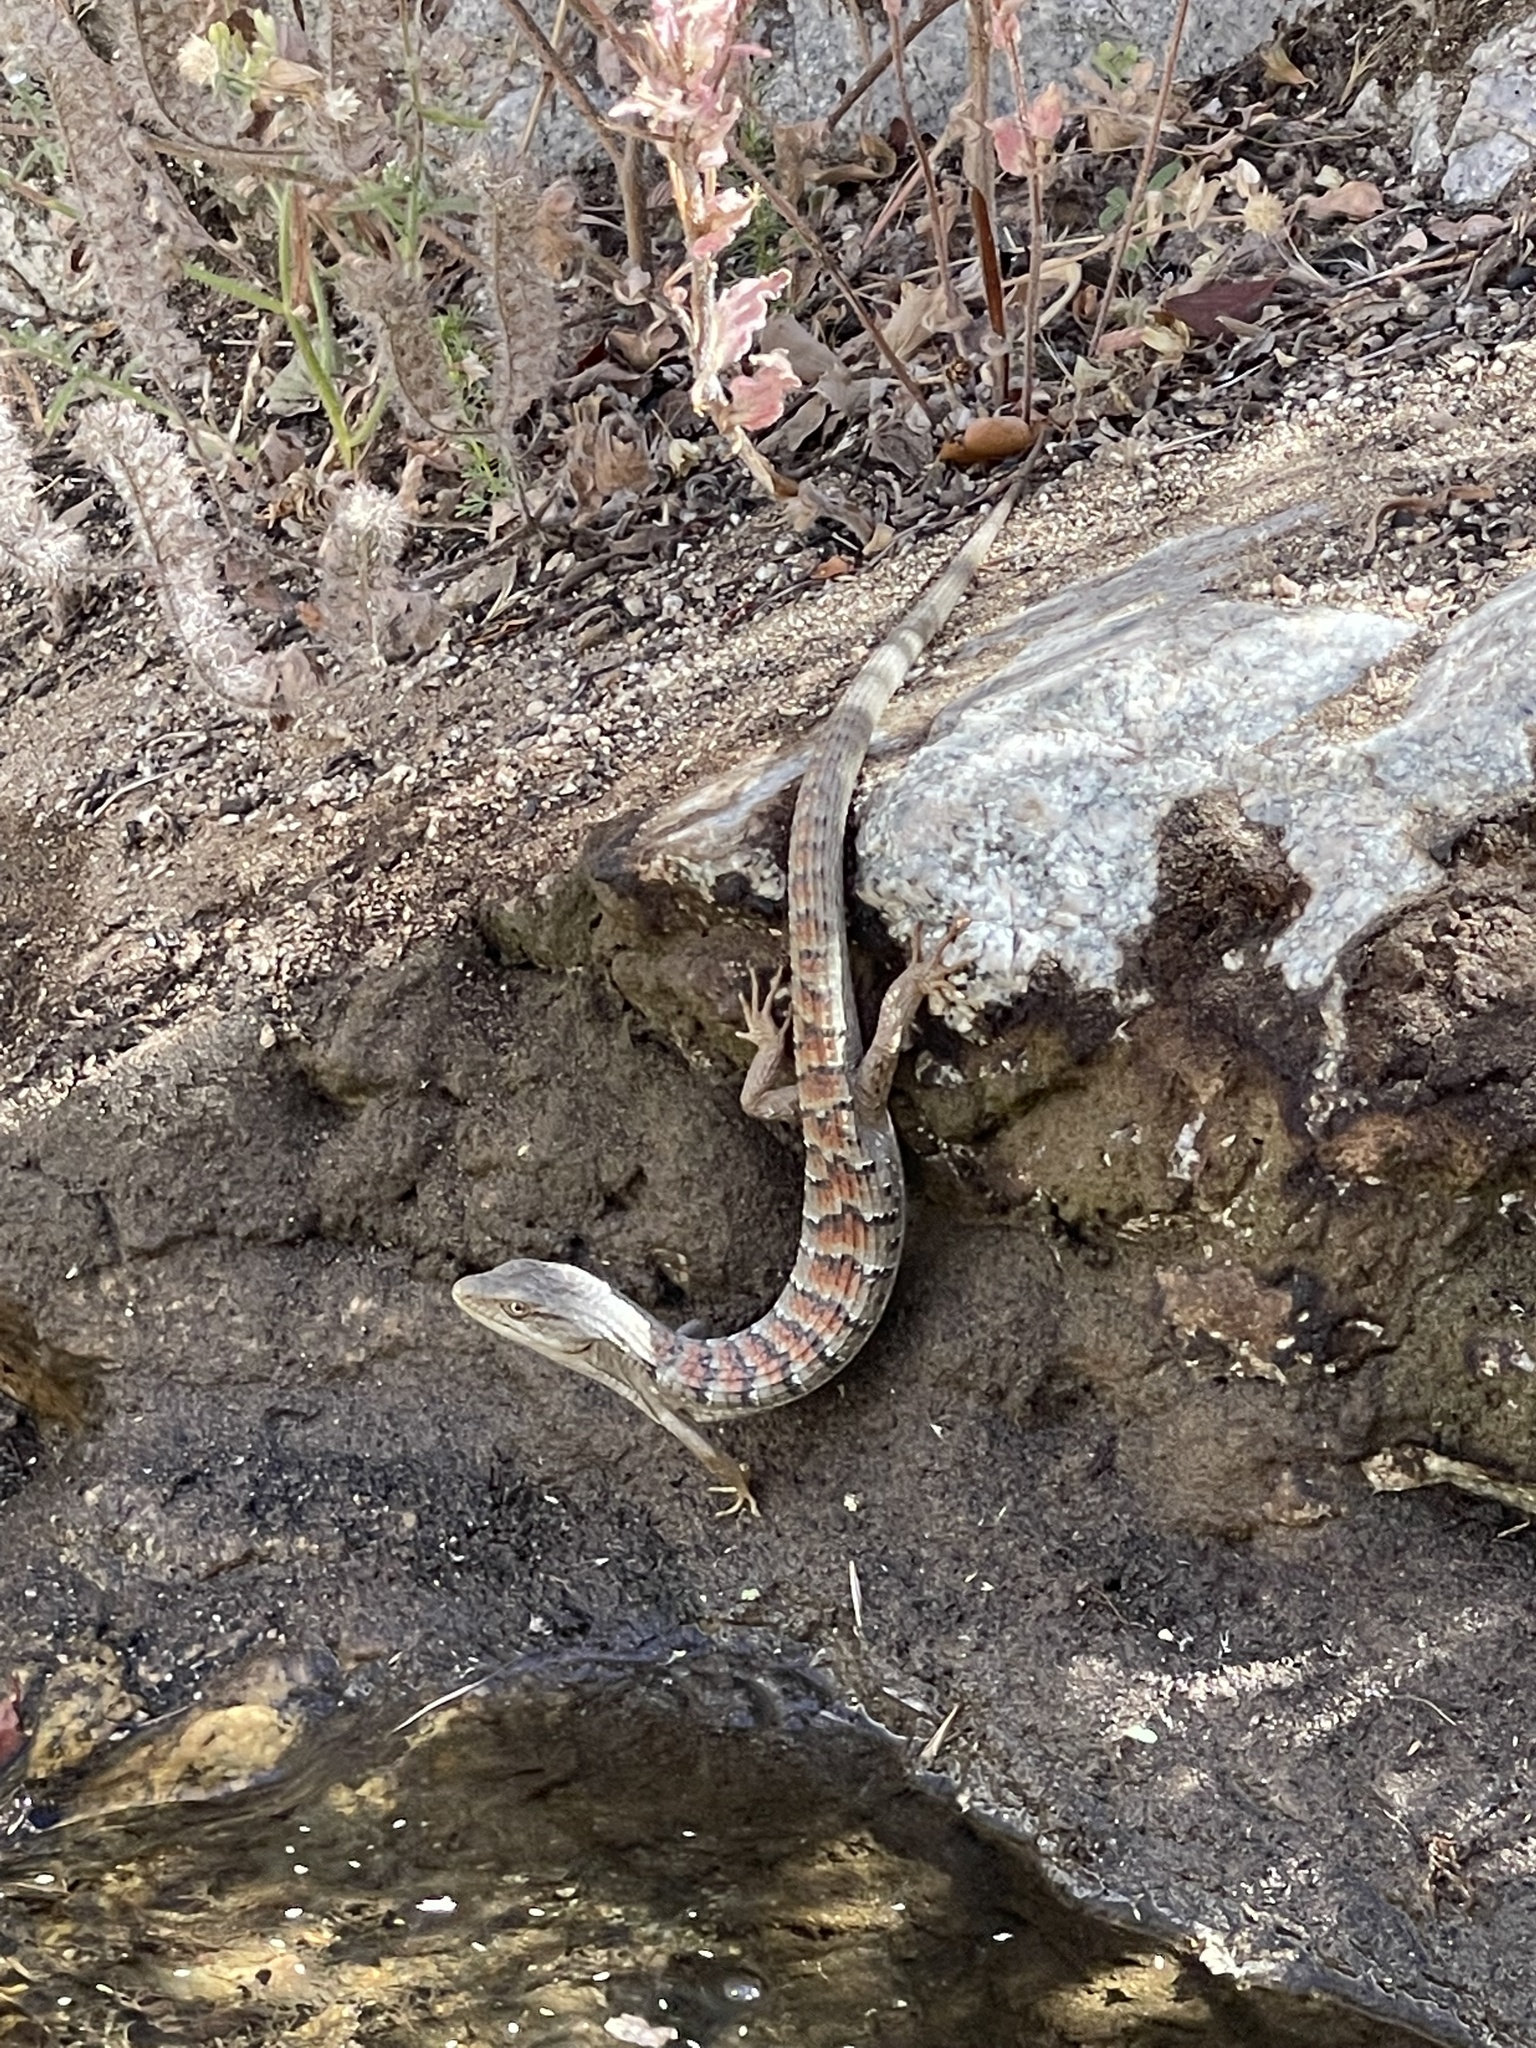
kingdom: Animalia
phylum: Chordata
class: Squamata
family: Anguidae
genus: Elgaria
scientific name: Elgaria multicarinata
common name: Southern alligator lizard
